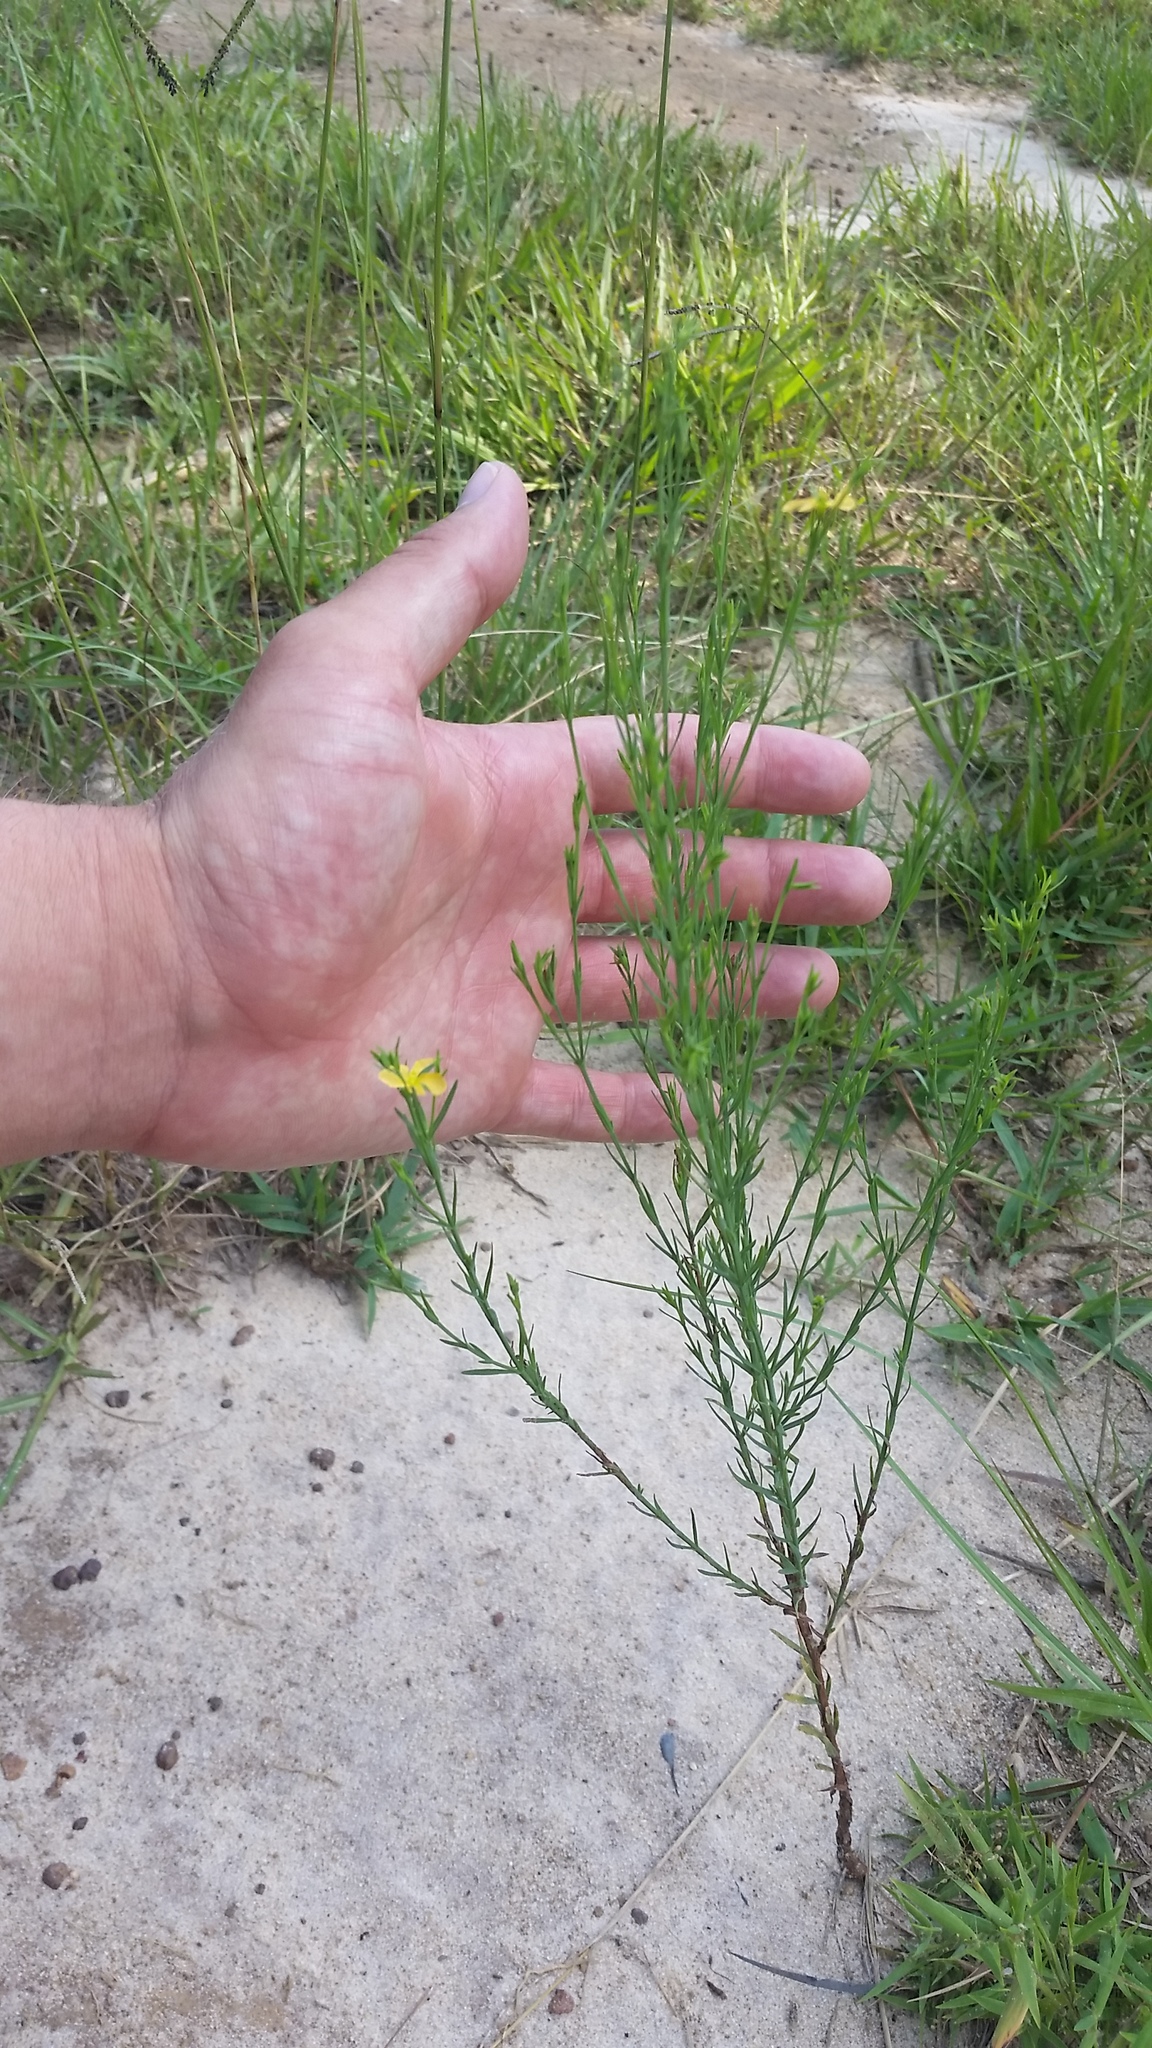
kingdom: Plantae
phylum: Tracheophyta
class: Magnoliopsida
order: Malpighiales
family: Hypericaceae
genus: Hypericum
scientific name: Hypericum drummondii
